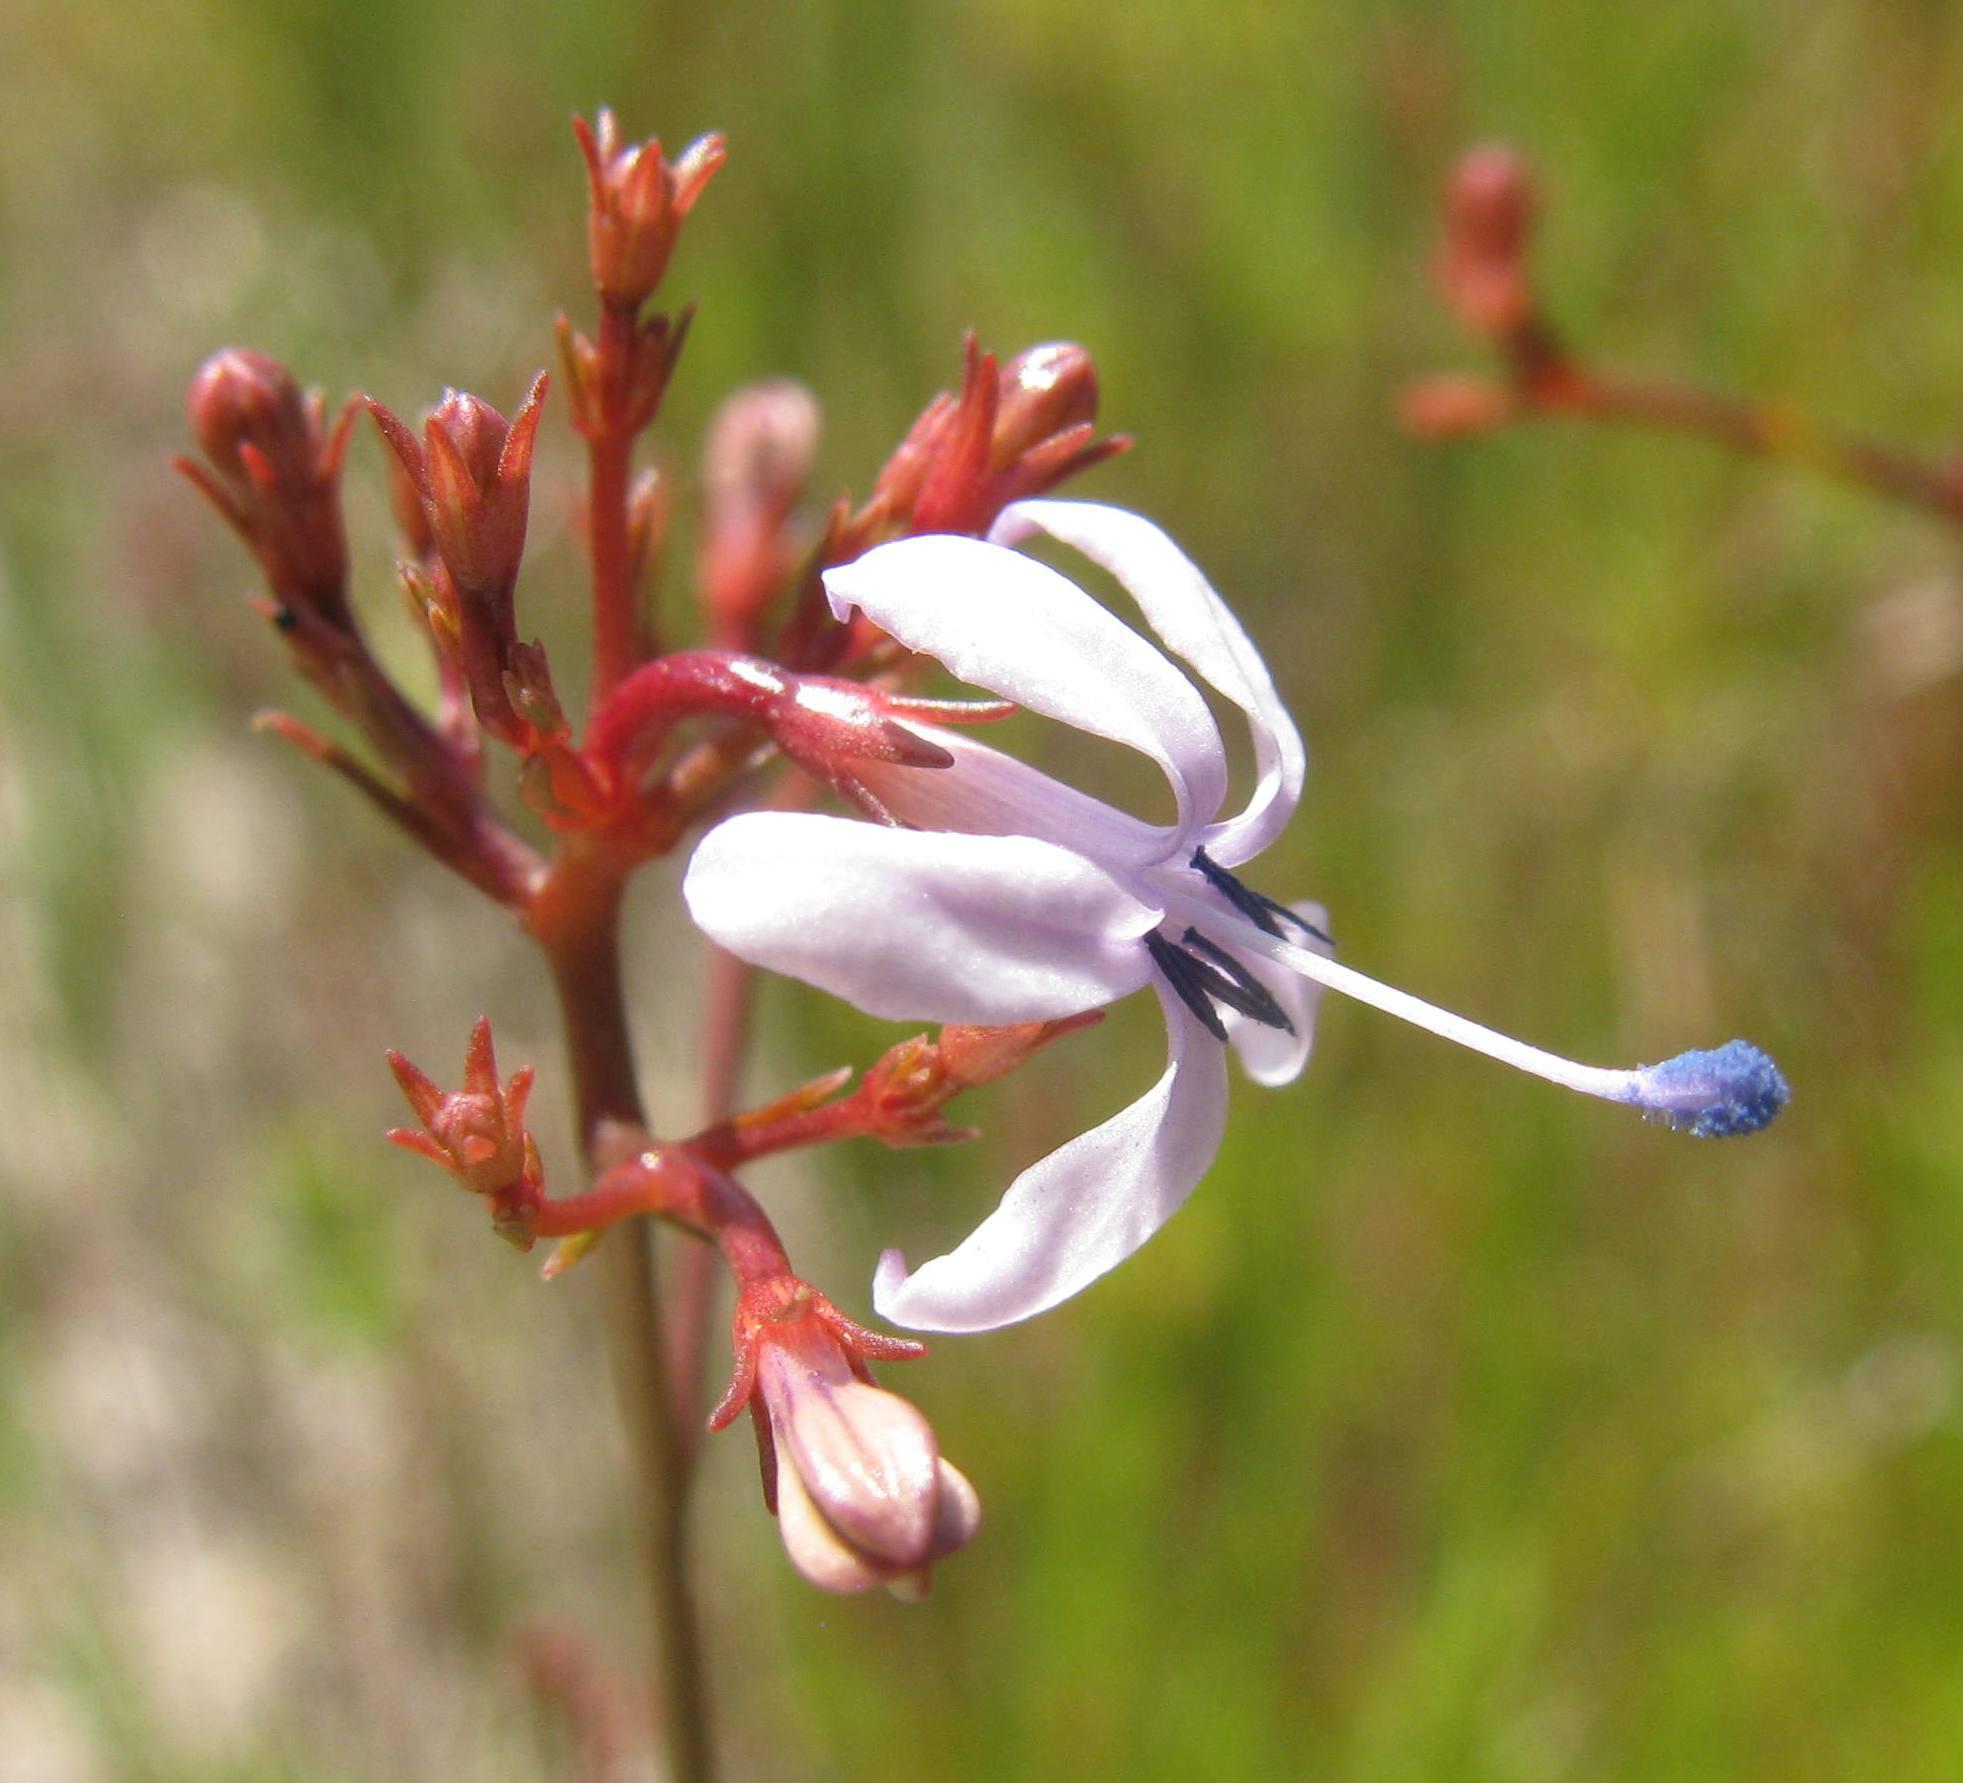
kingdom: Plantae
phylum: Tracheophyta
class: Magnoliopsida
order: Asterales
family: Campanulaceae
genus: Prismatocarpus
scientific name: Prismatocarpus diffusus
